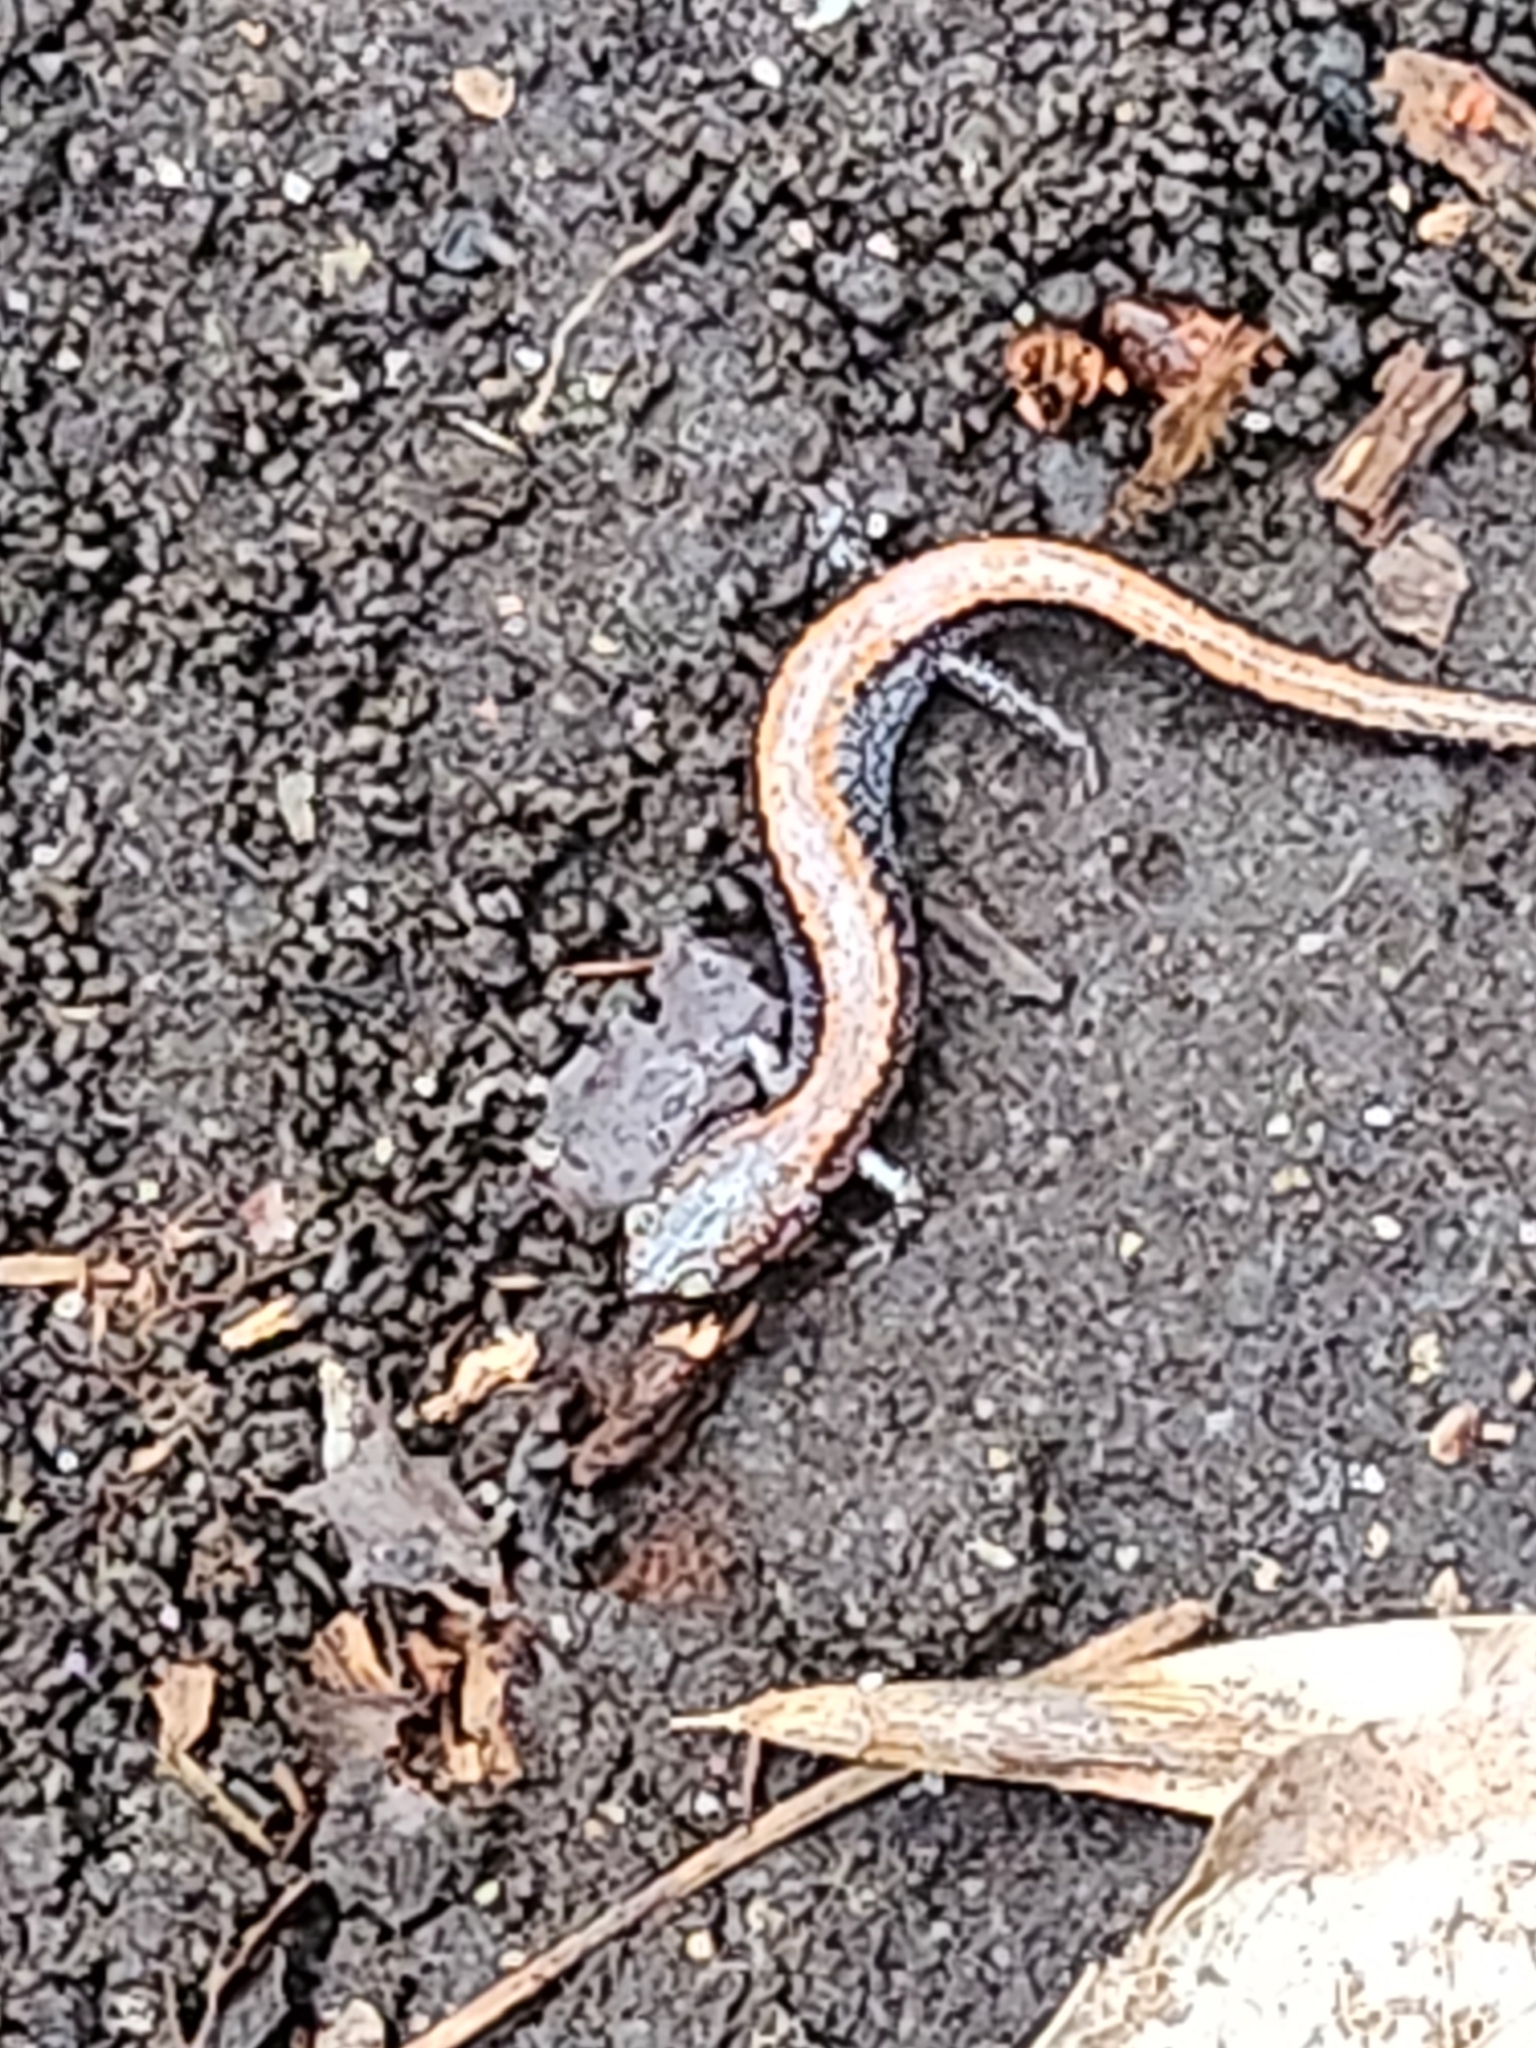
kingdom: Animalia
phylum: Chordata
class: Amphibia
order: Caudata
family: Plethodontidae
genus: Plethodon
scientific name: Plethodon cinereus
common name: Redback salamander
